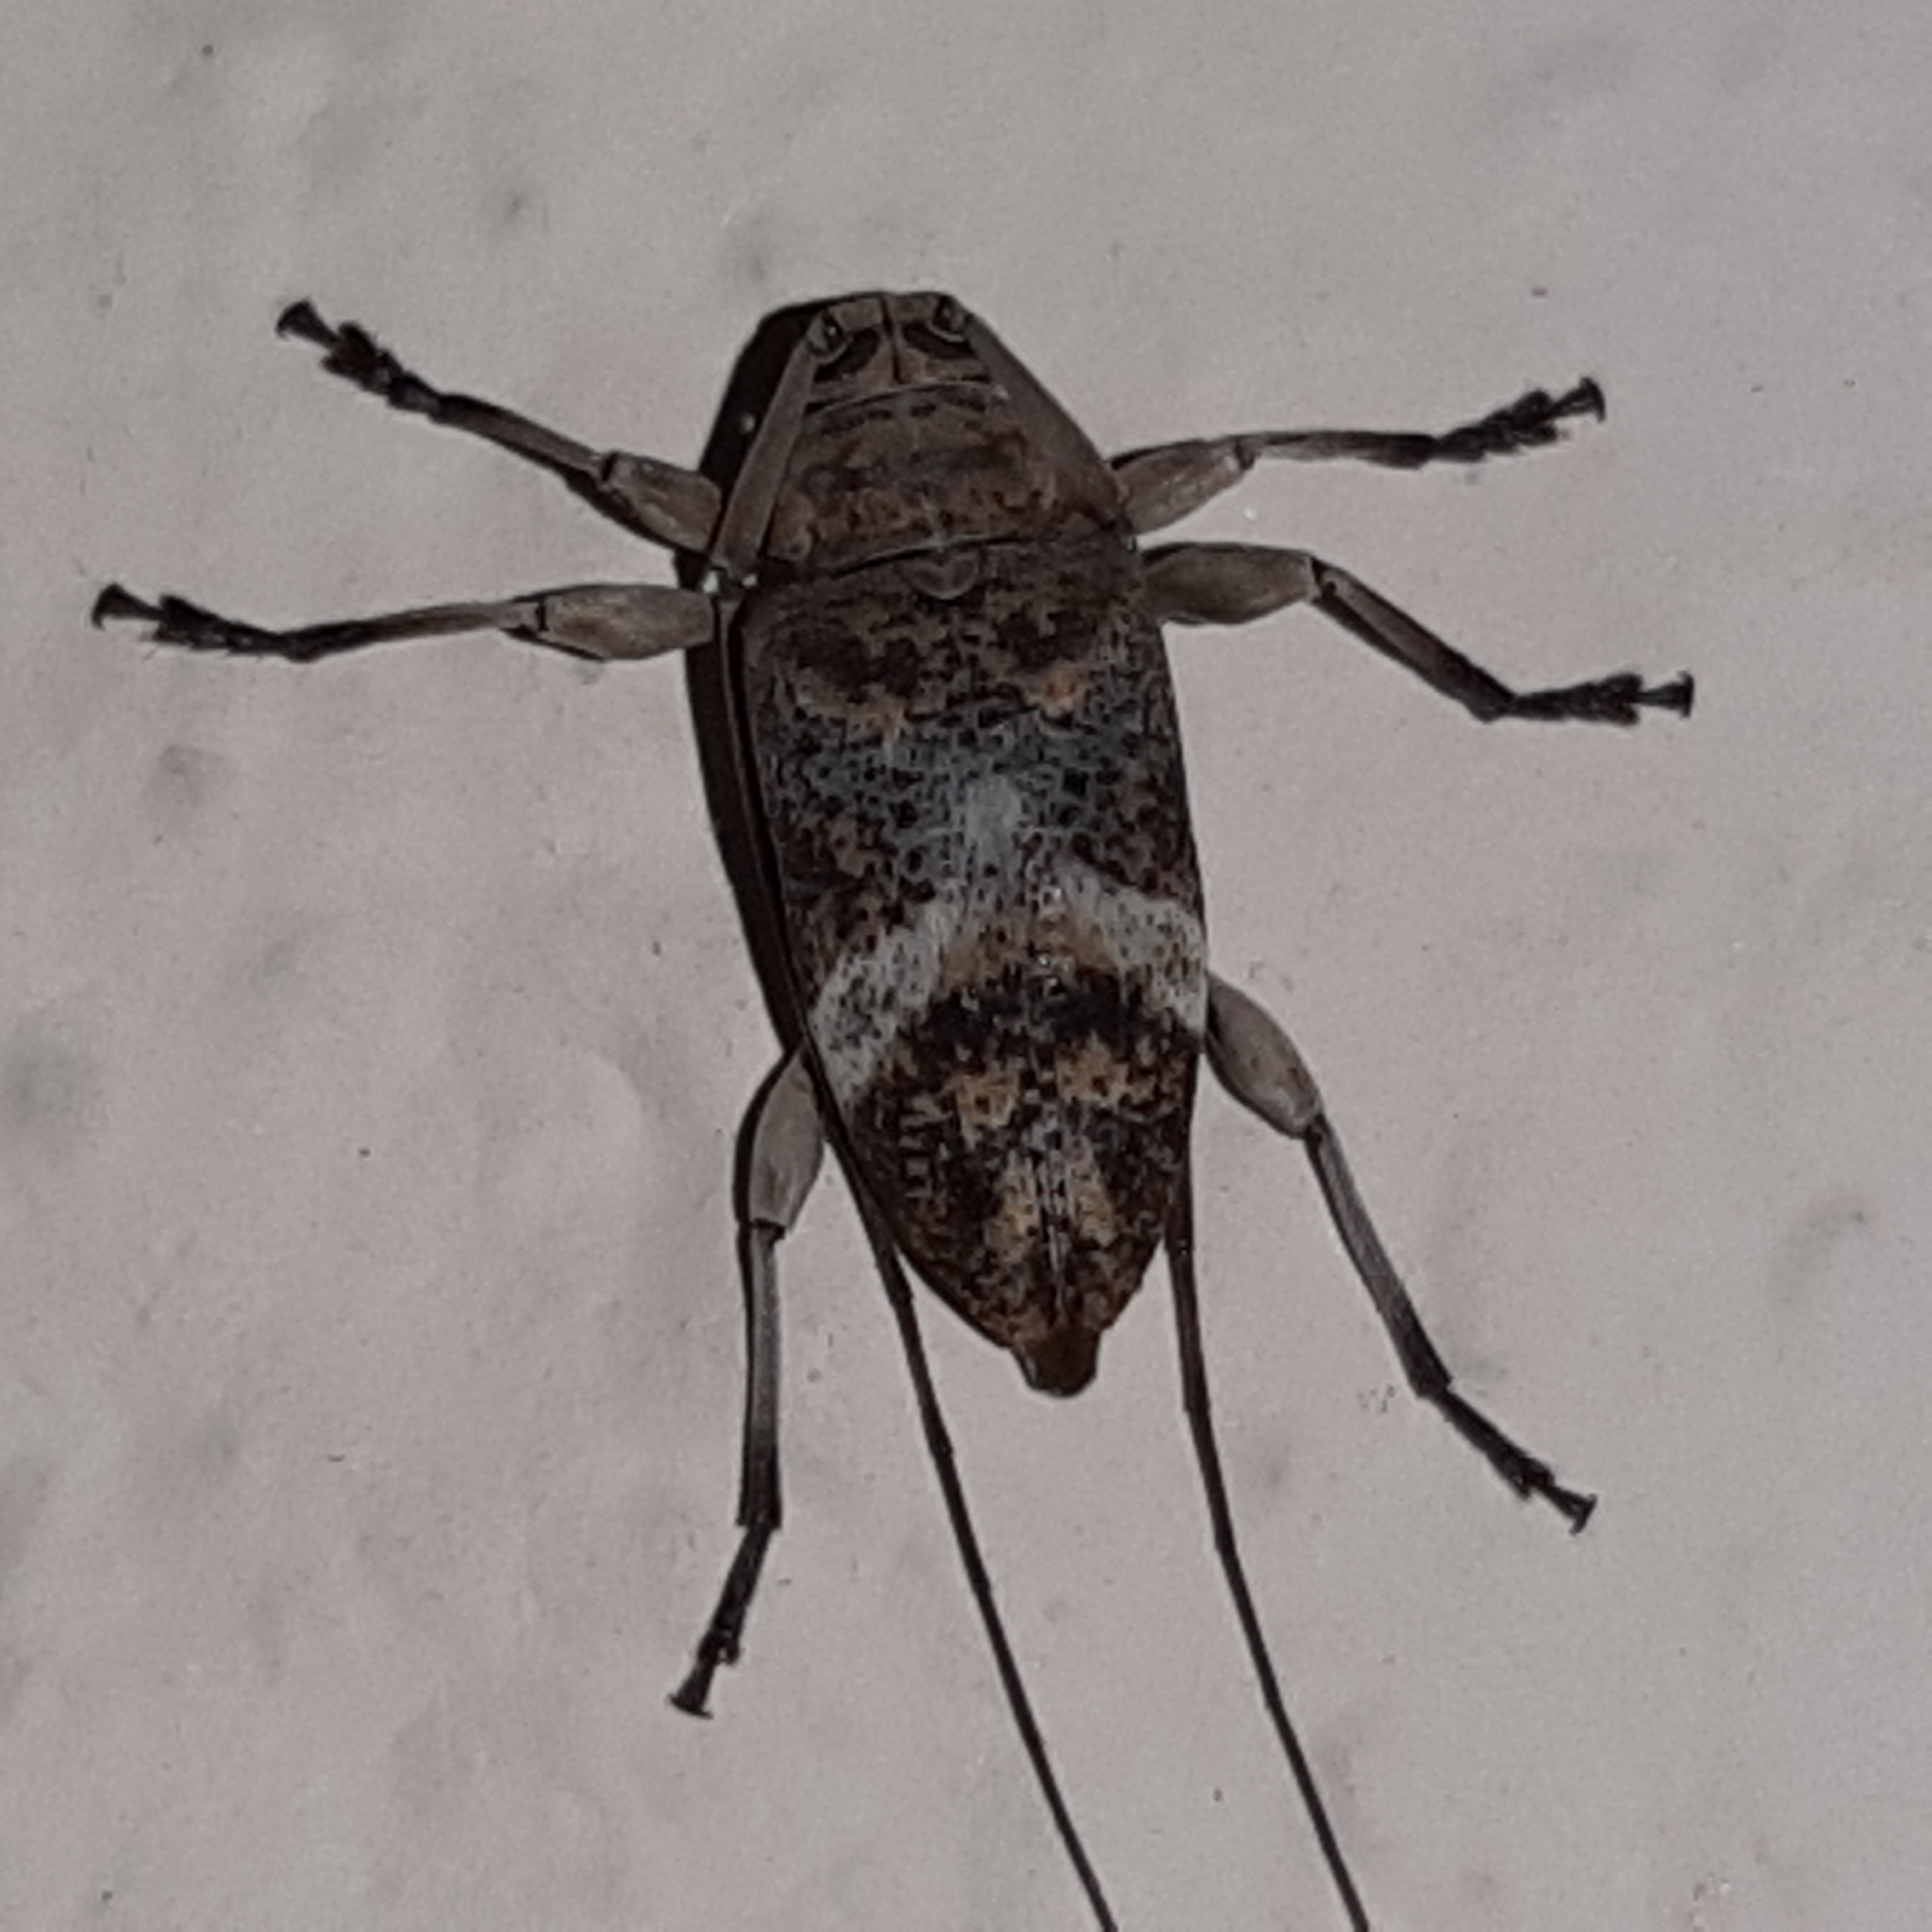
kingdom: Animalia
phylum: Arthropoda
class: Insecta
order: Coleoptera
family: Cerambycidae
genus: Atrypanius
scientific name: Atrypanius implexus
